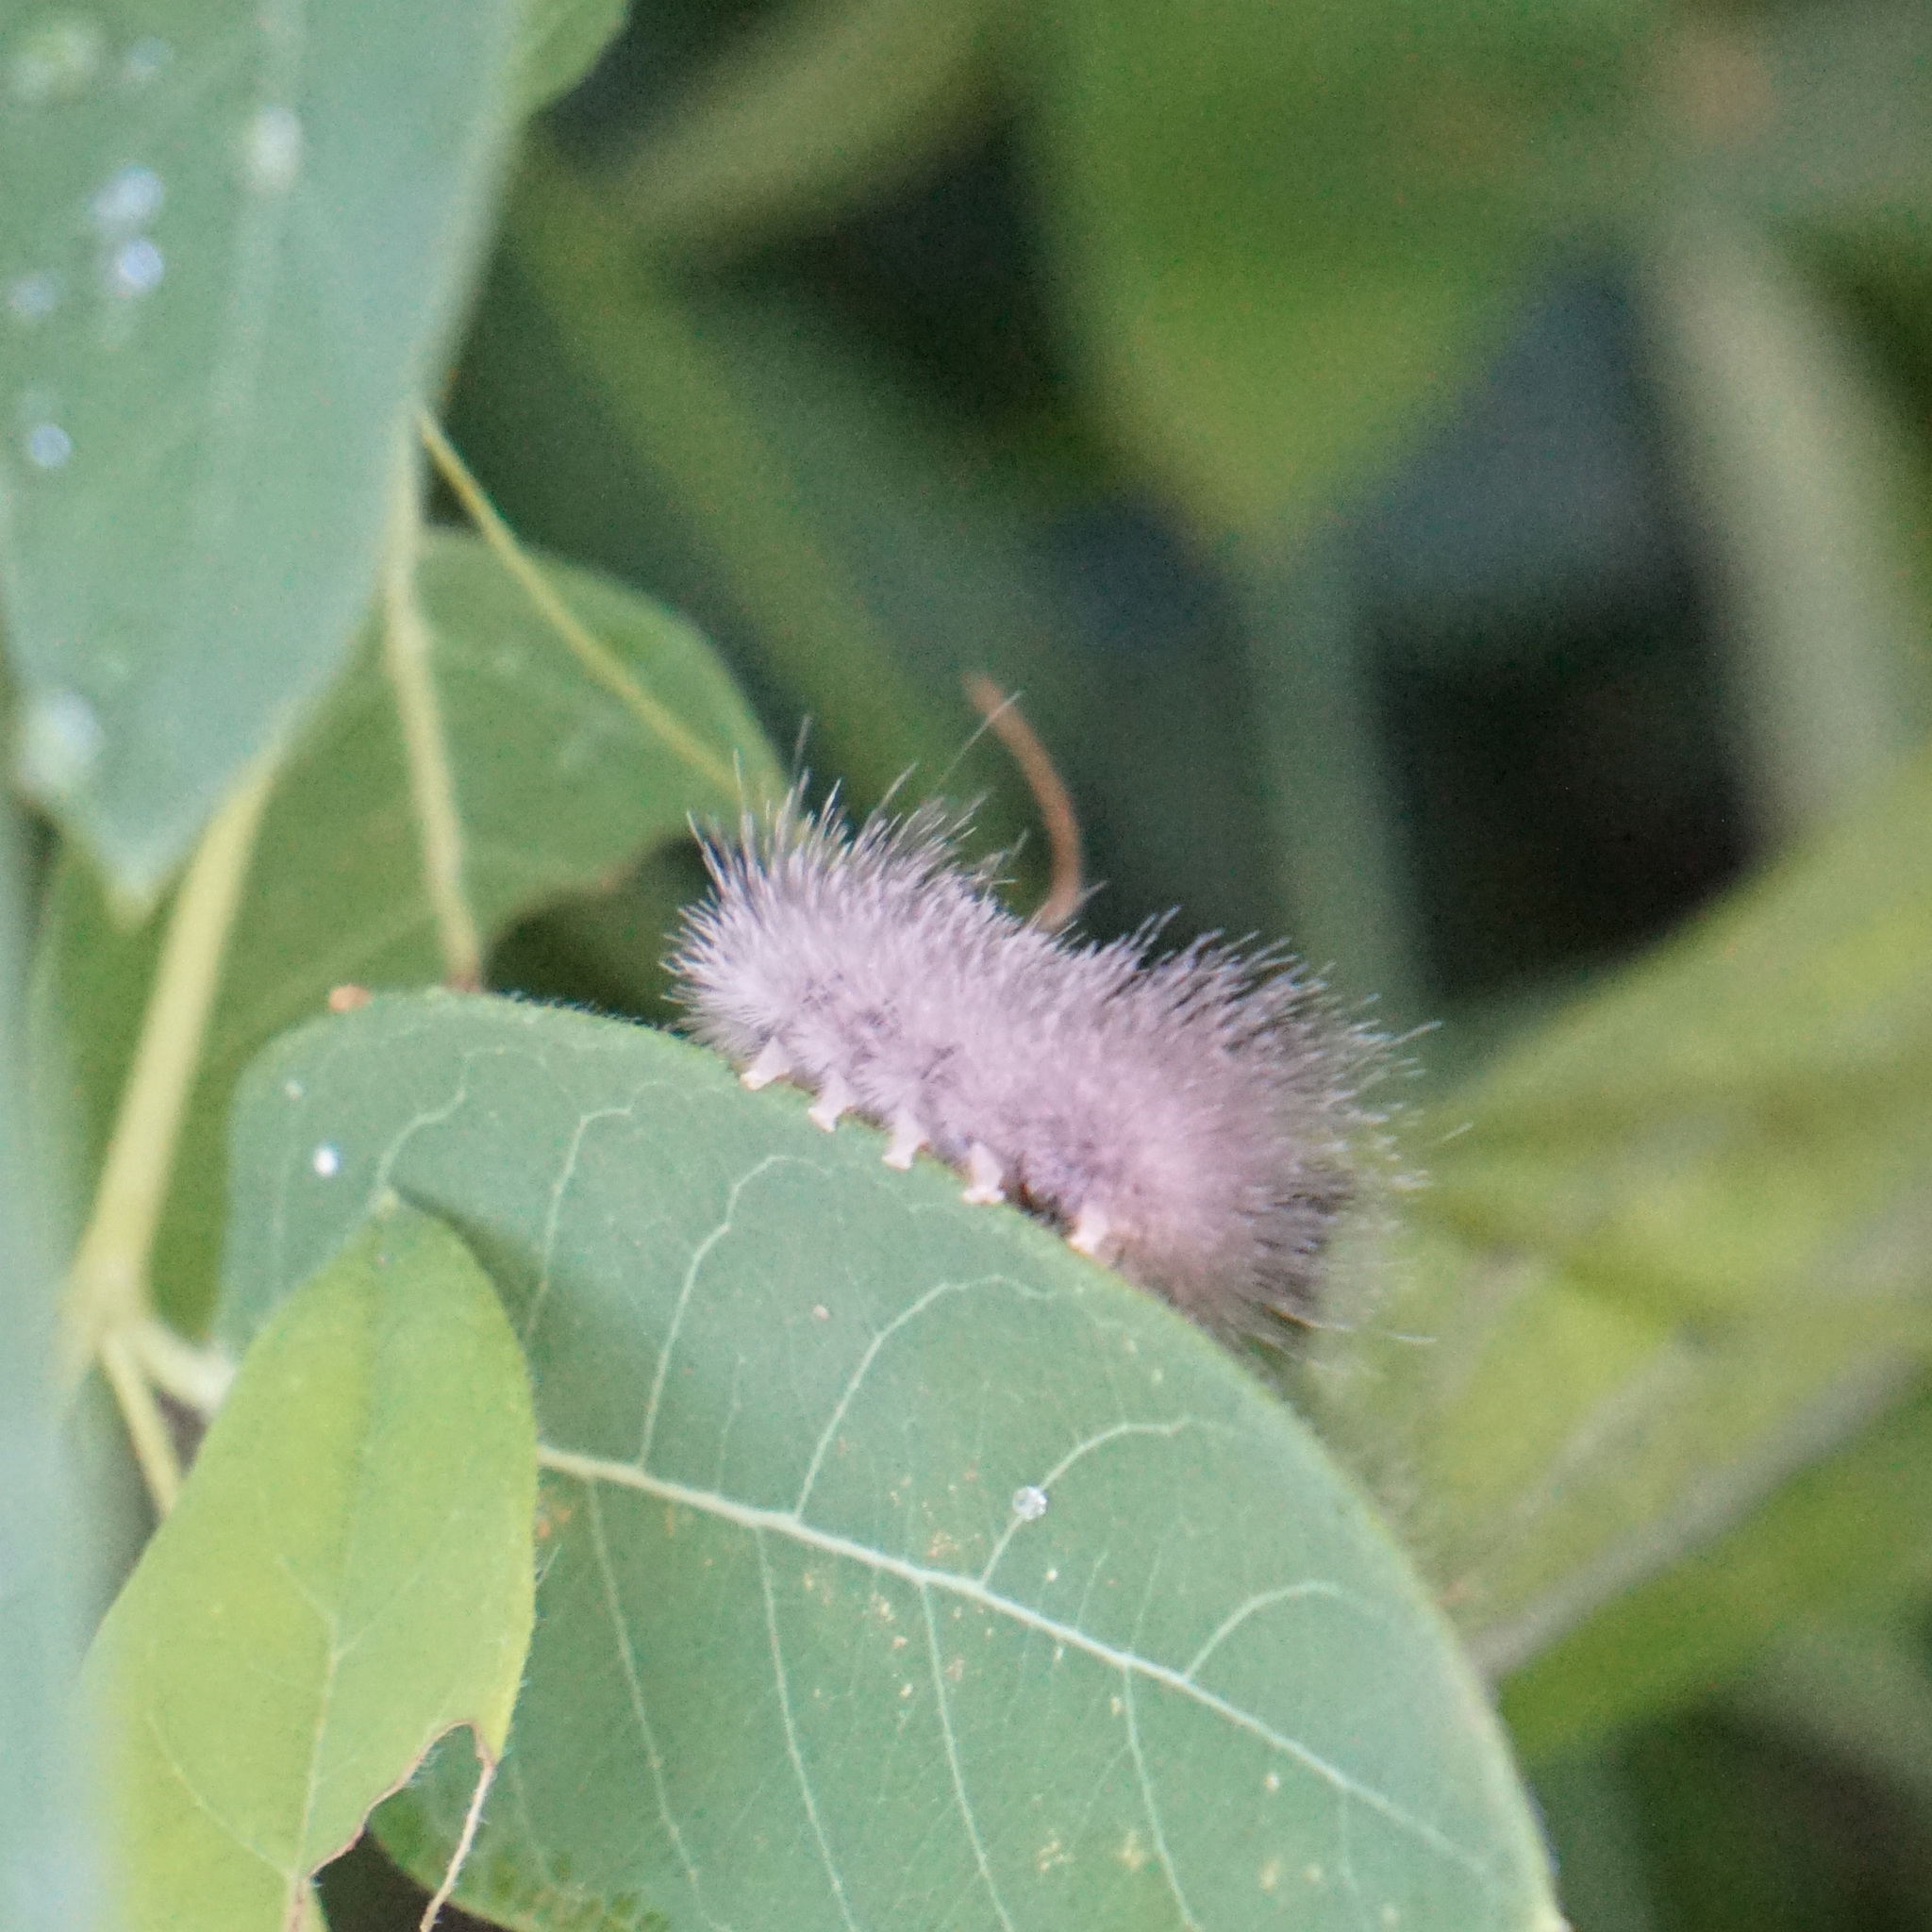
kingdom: Animalia
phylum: Arthropoda
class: Insecta
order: Lepidoptera
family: Erebidae
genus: Cycnia
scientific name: Cycnia tenera
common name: Delicate cycnia moth
